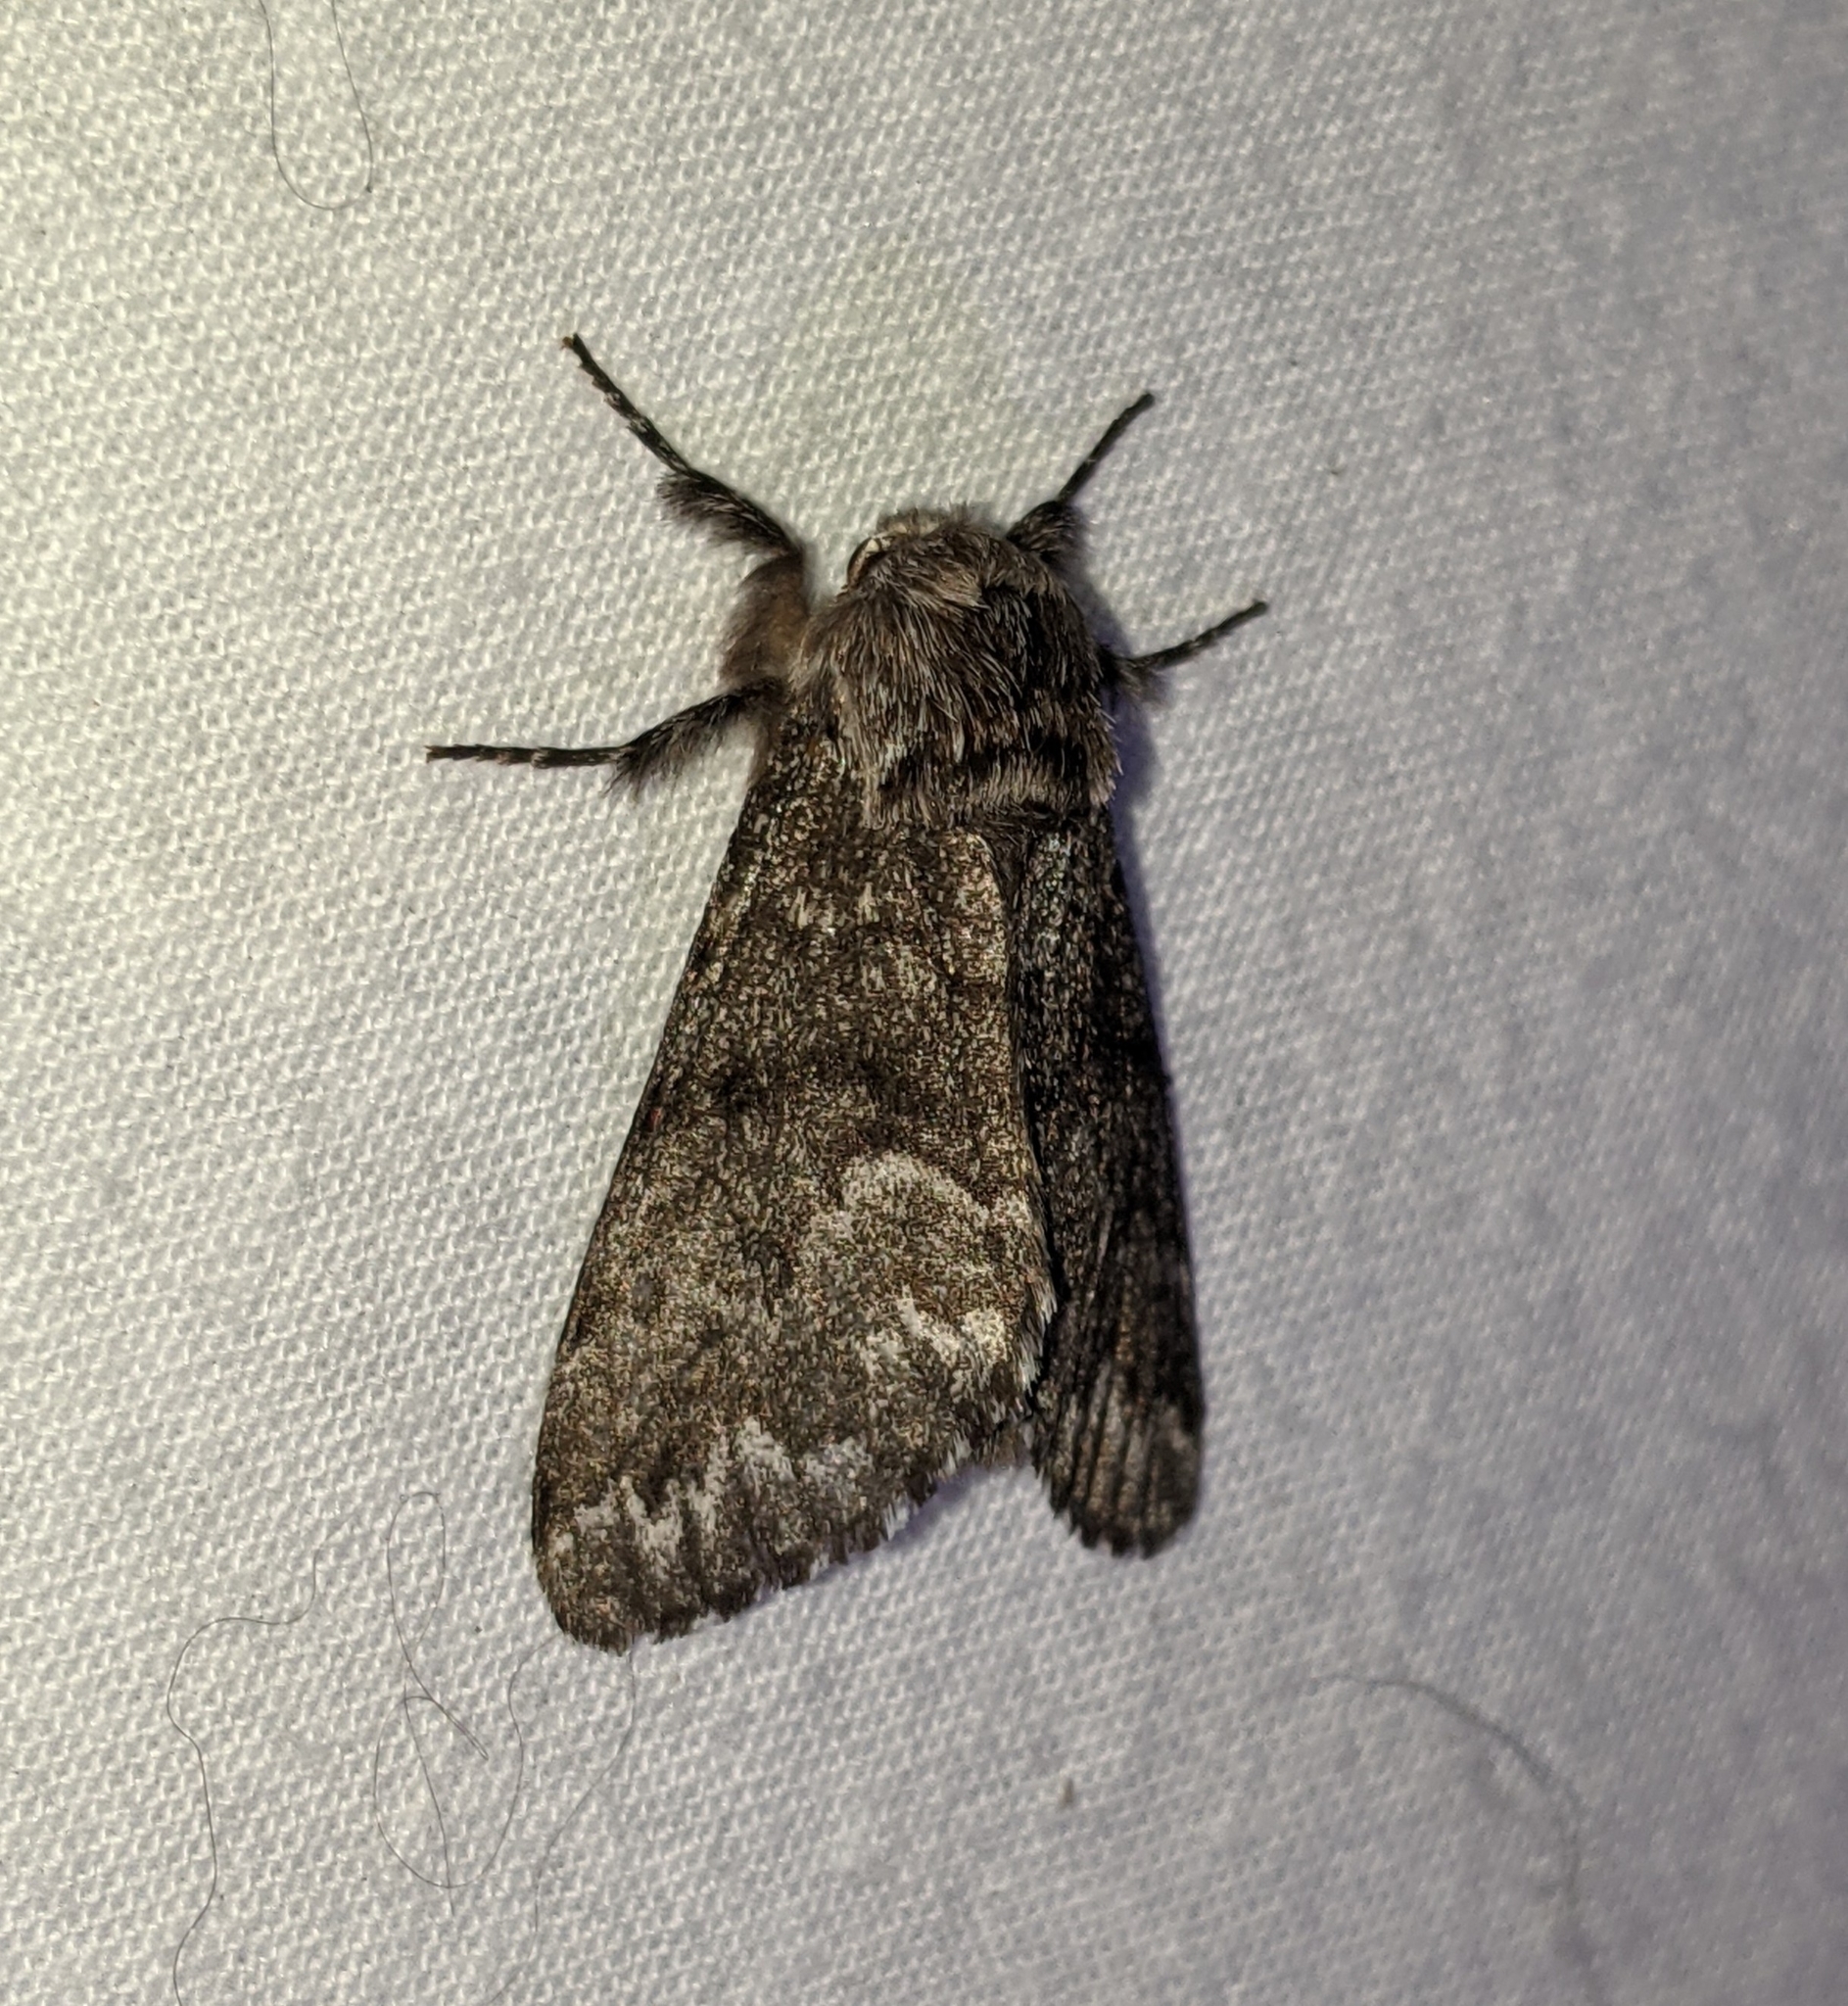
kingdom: Animalia
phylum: Arthropoda
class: Insecta
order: Lepidoptera
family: Noctuidae
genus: Panthea
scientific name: Panthea virginarius
